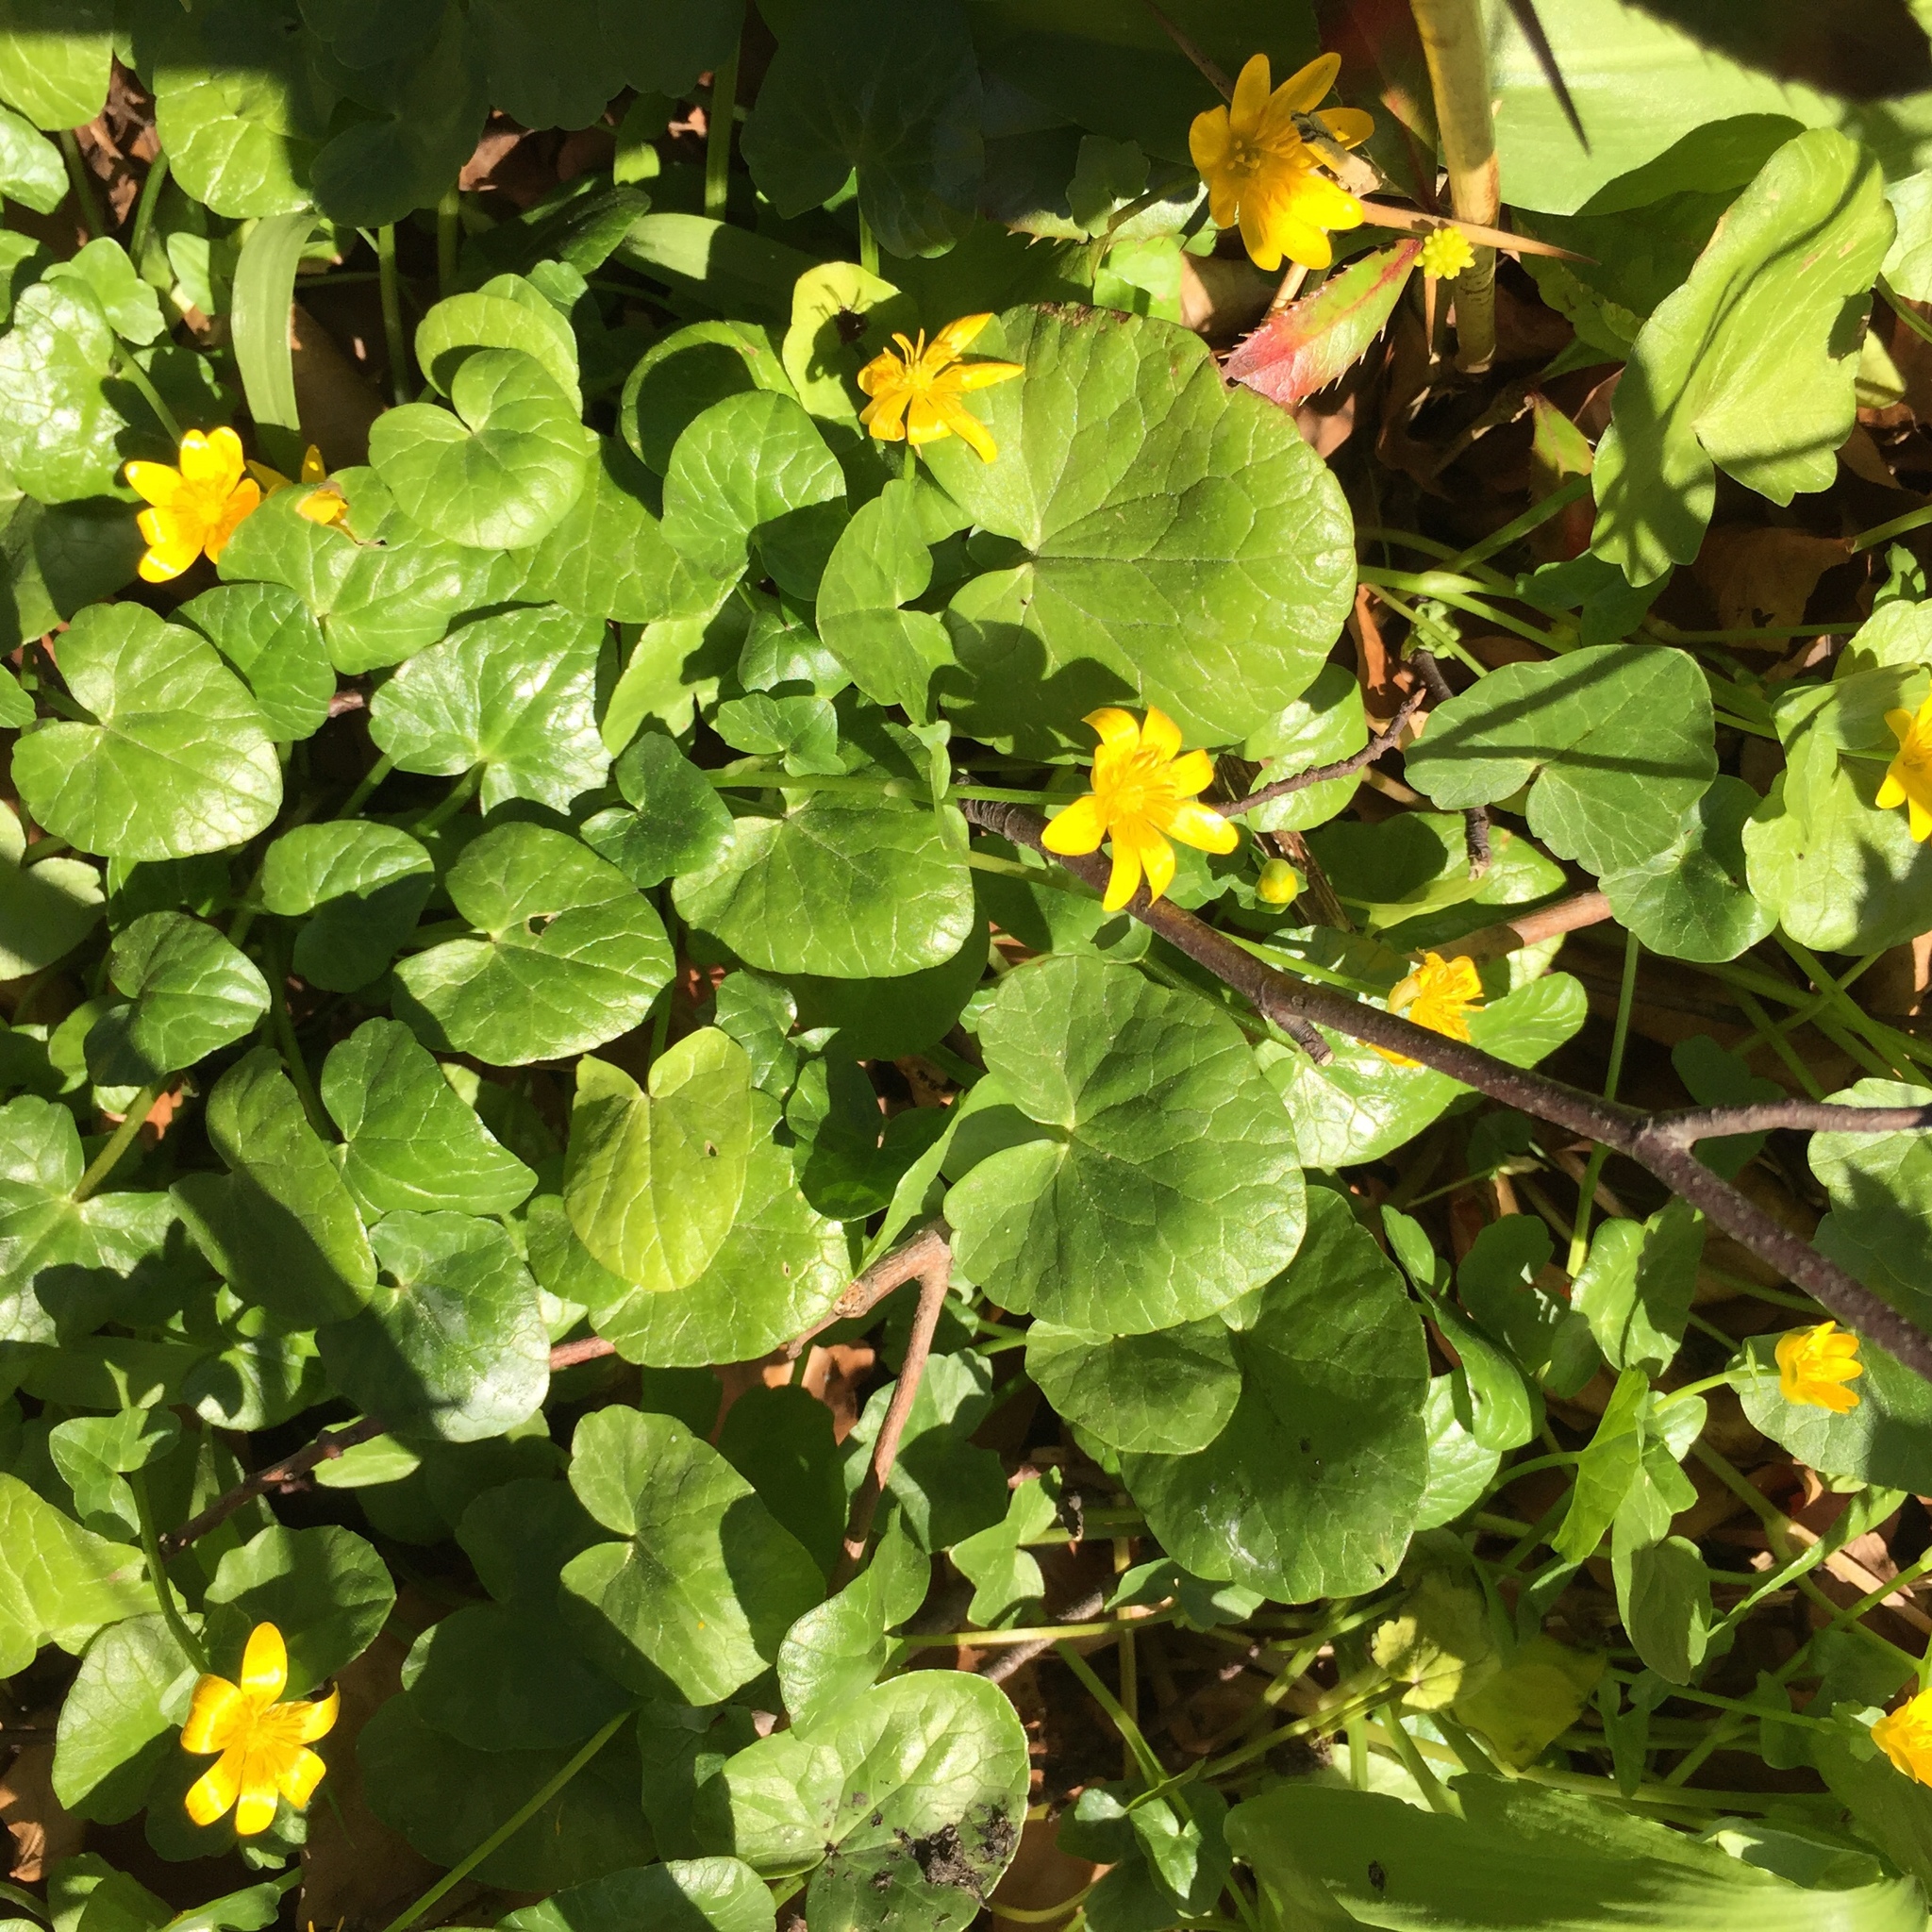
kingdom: Plantae
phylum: Tracheophyta
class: Magnoliopsida
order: Ranunculales
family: Ranunculaceae
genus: Ficaria
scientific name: Ficaria verna
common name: Lesser celandine
